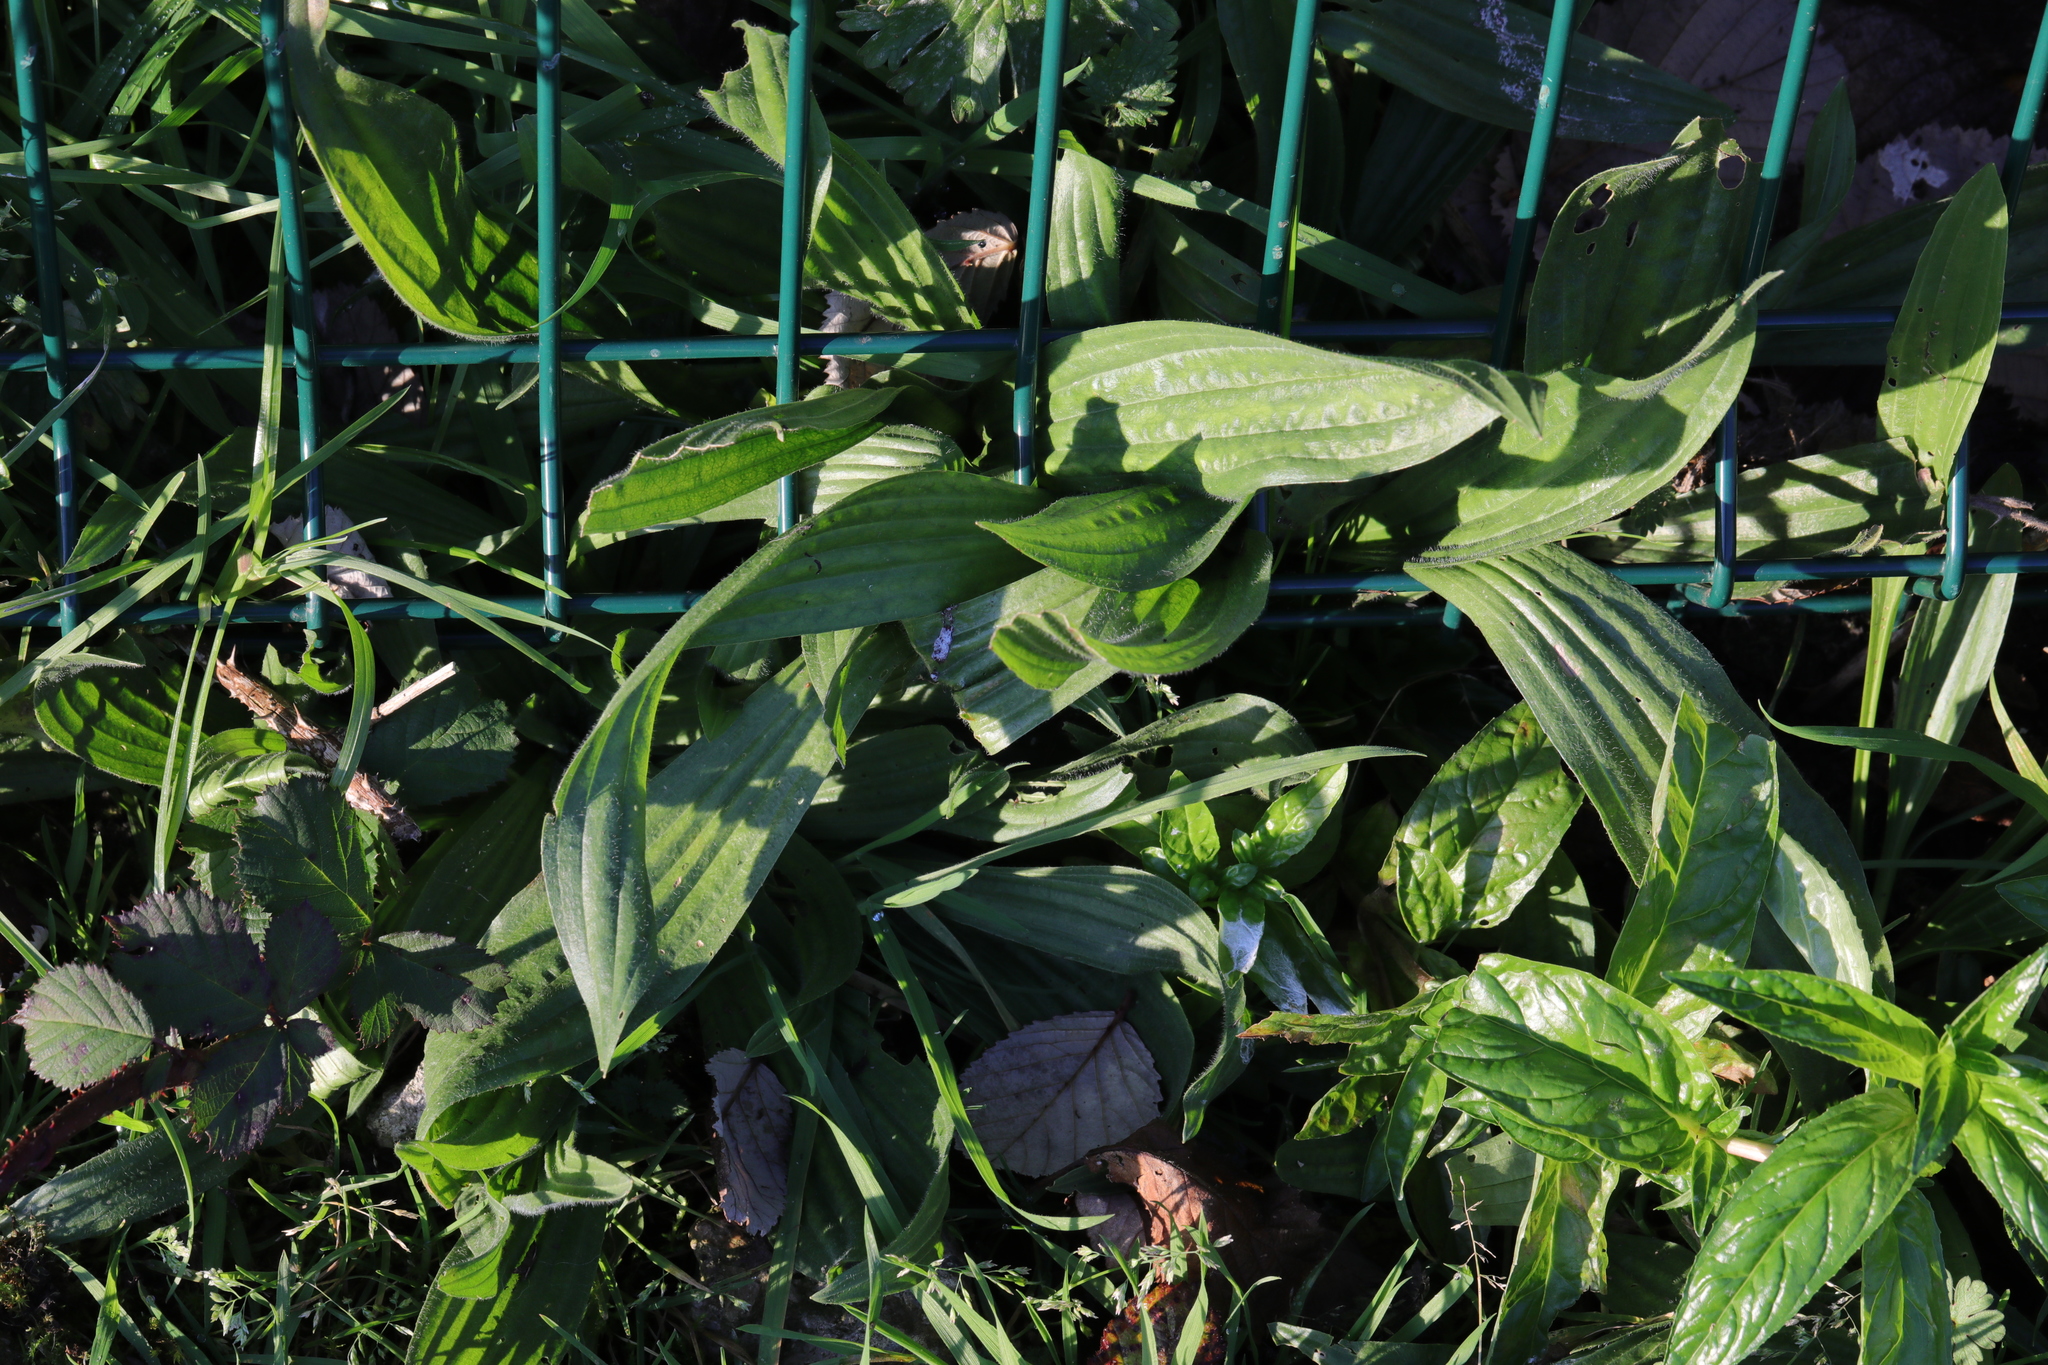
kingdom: Plantae
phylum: Tracheophyta
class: Magnoliopsida
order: Lamiales
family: Plantaginaceae
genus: Plantago
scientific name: Plantago lanceolata
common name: Ribwort plantain
